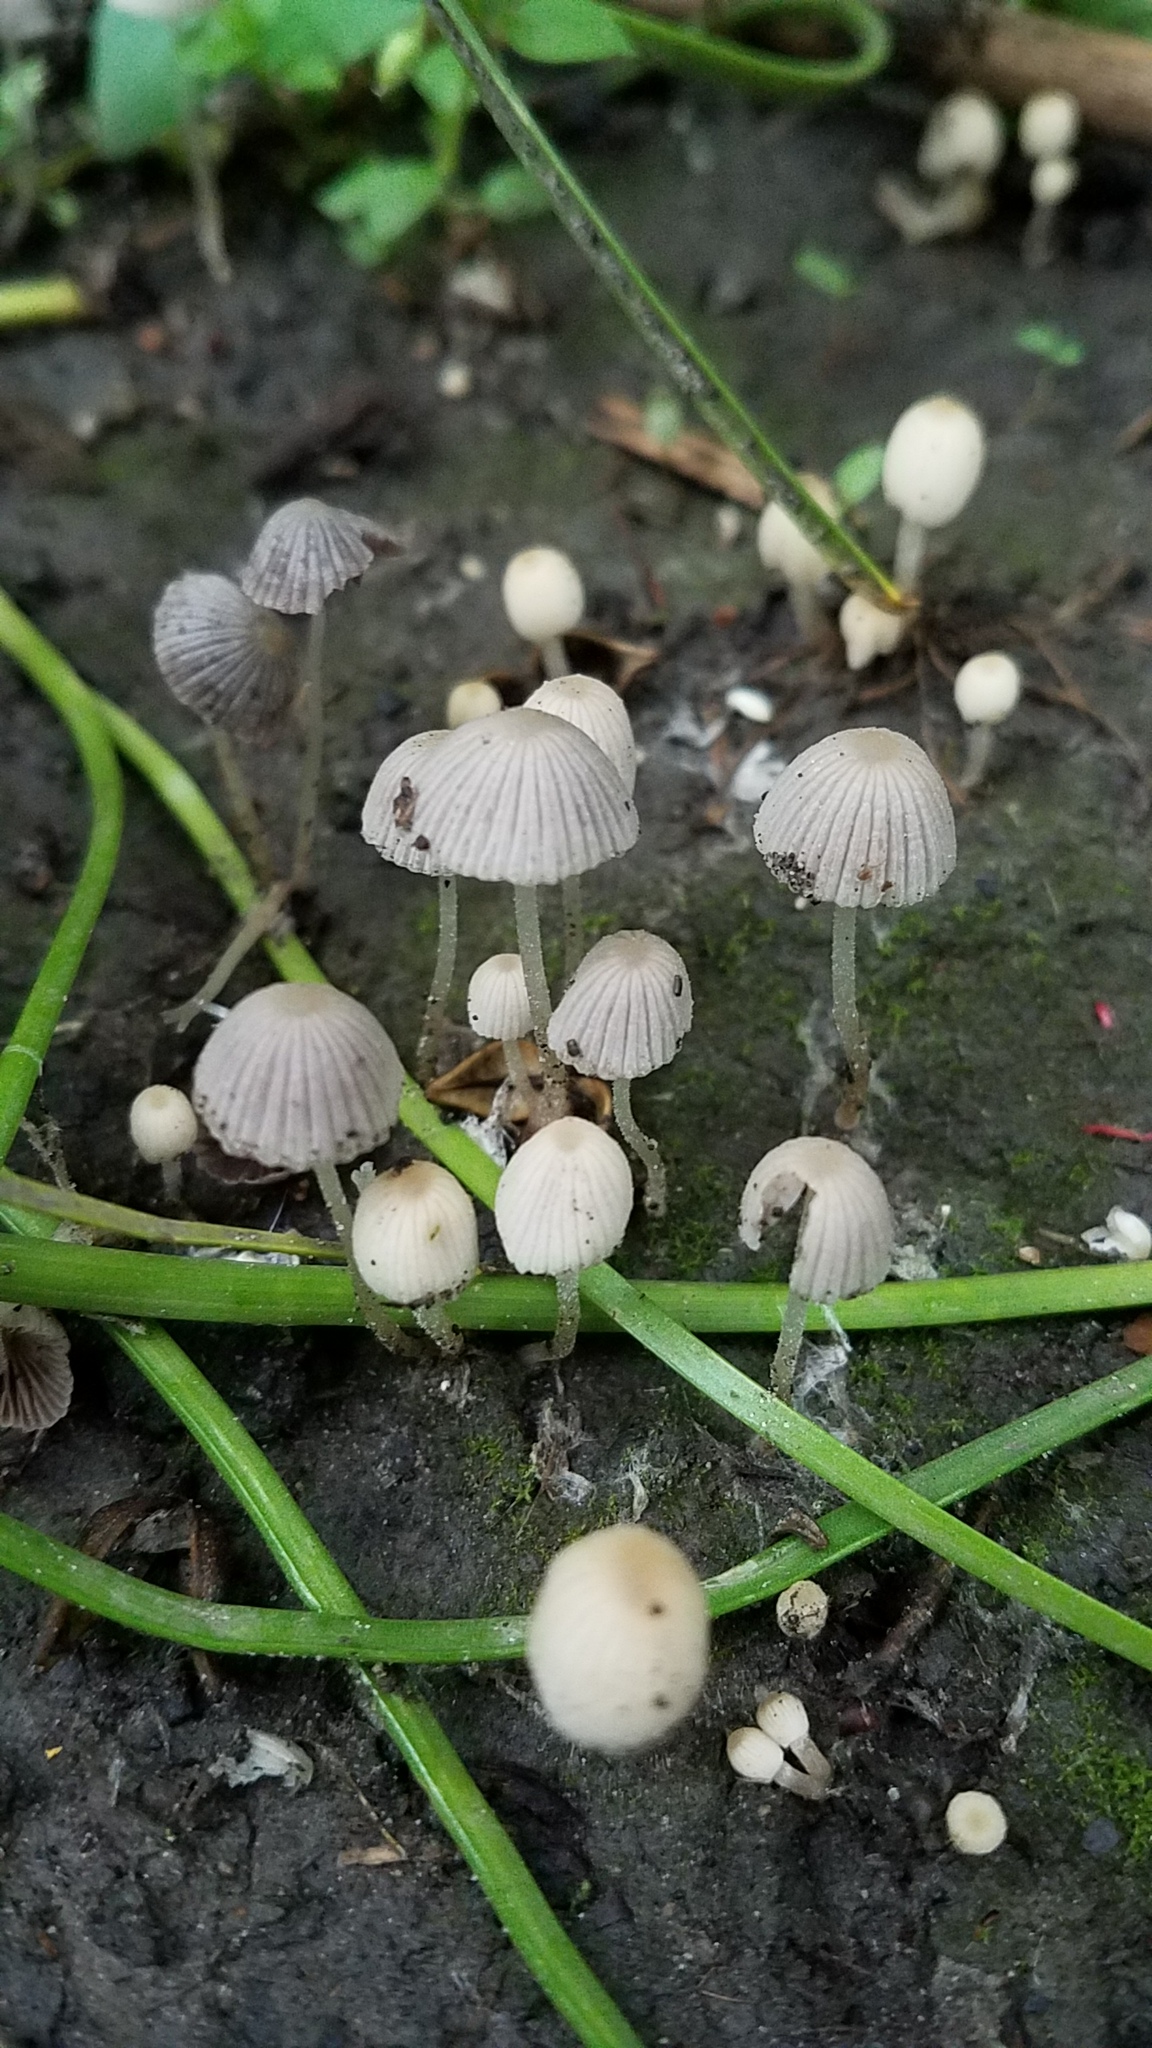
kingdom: Fungi
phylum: Basidiomycota
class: Agaricomycetes
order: Agaricales
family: Psathyrellaceae
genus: Coprinellus
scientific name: Coprinellus disseminatus
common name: Fairies' bonnets
